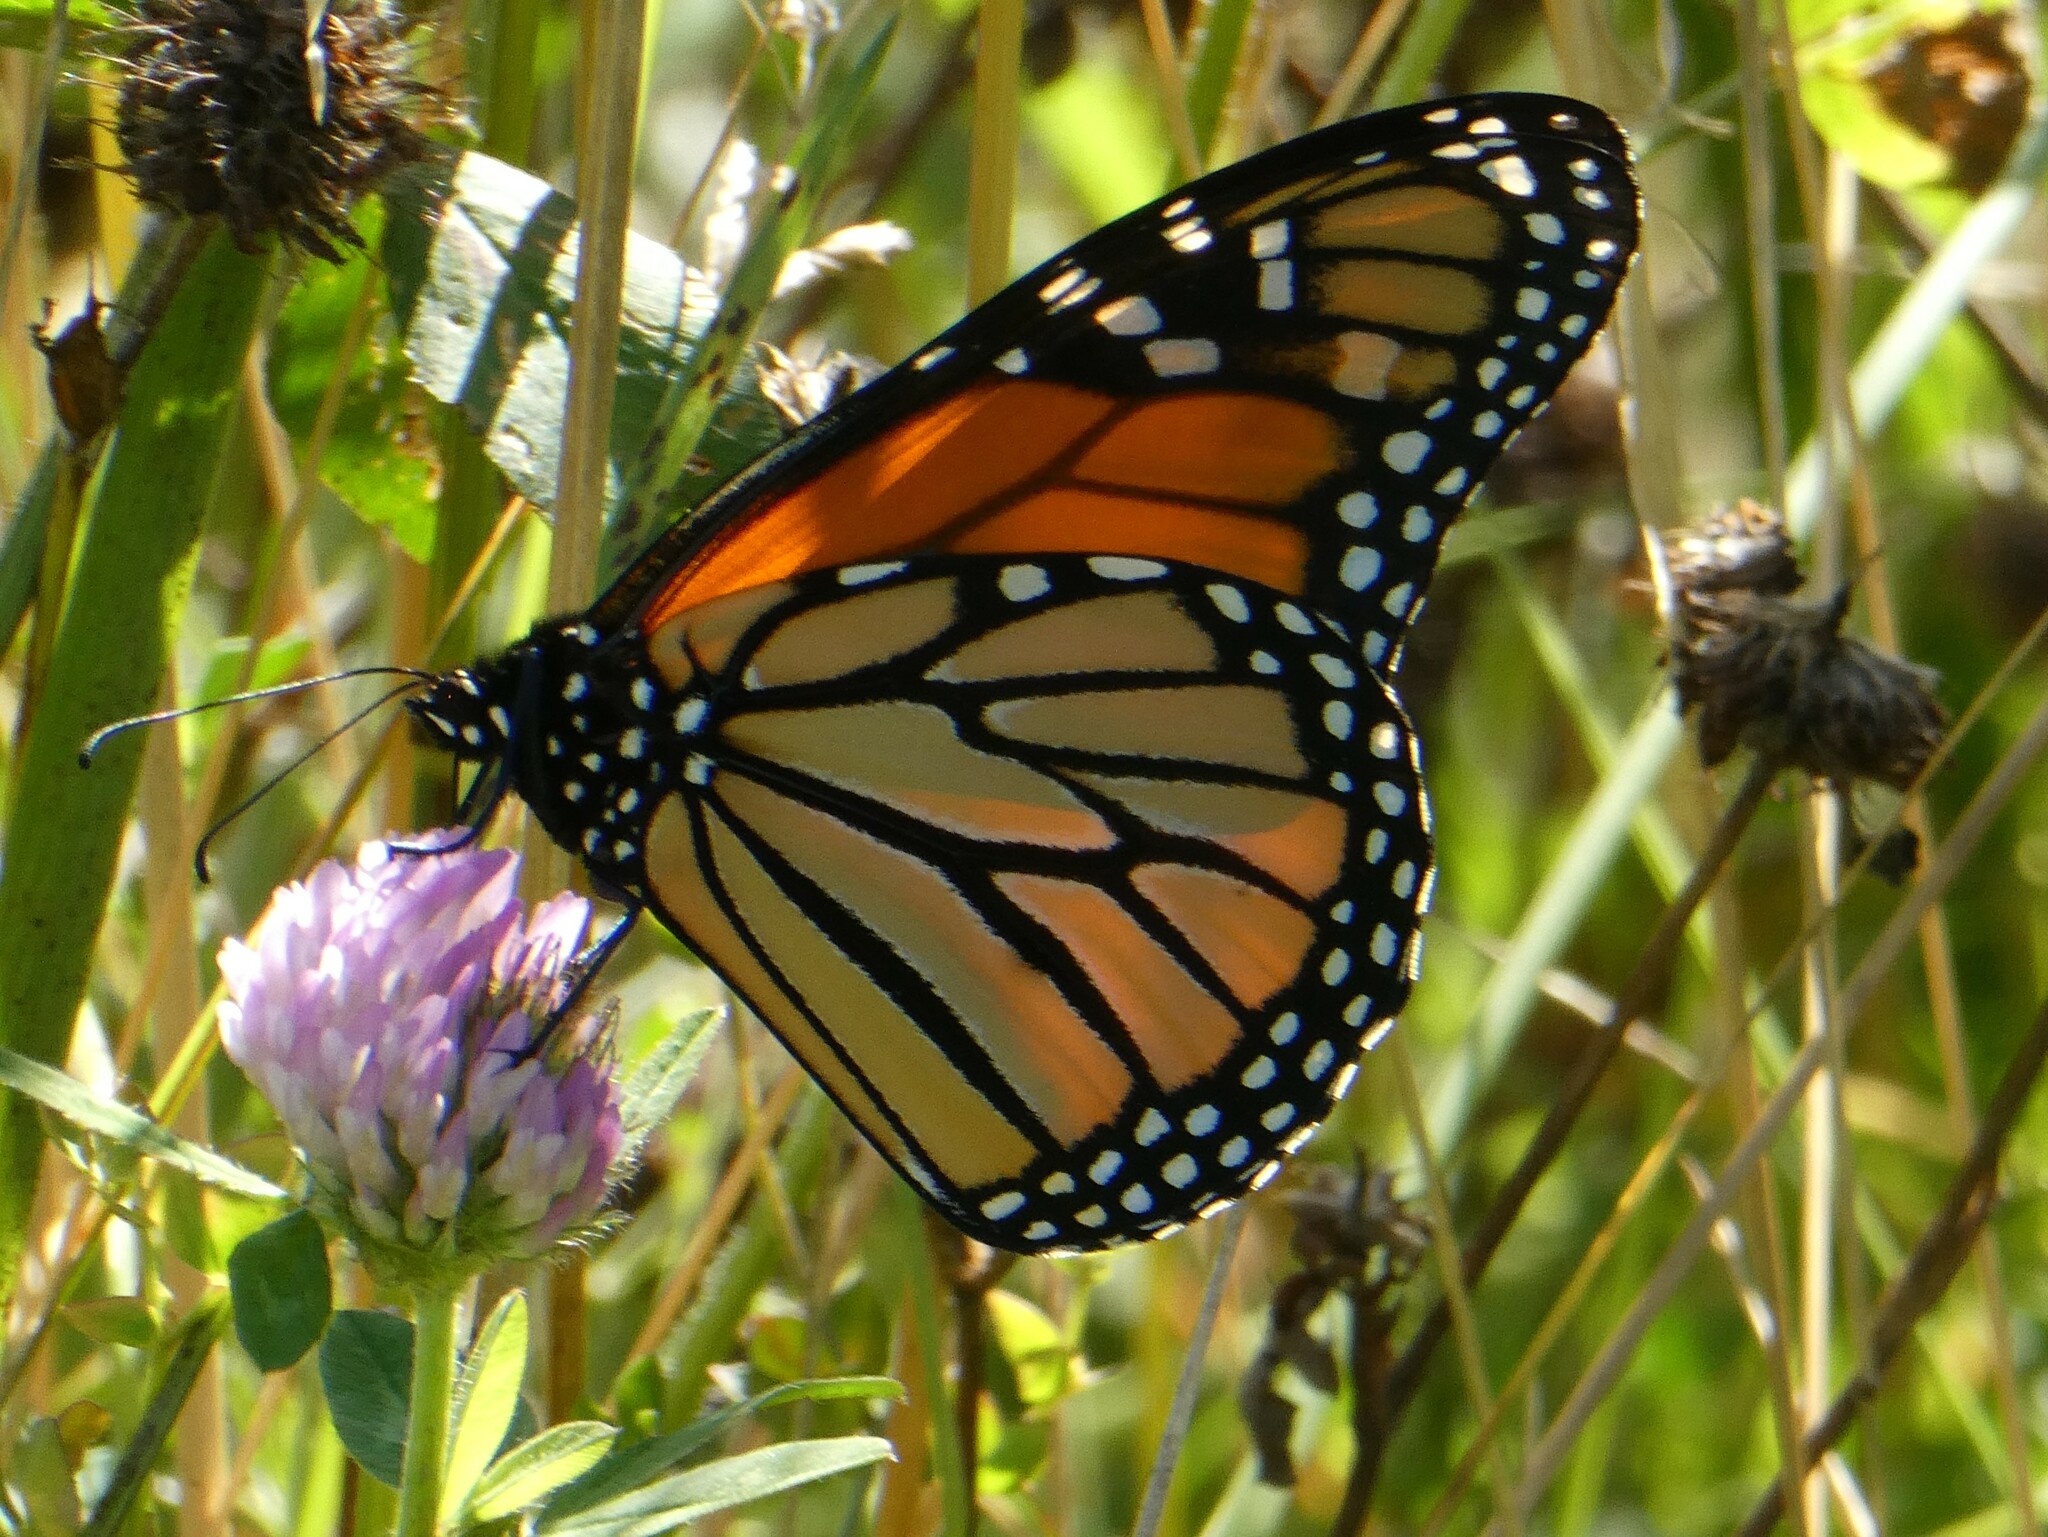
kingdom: Animalia
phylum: Arthropoda
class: Insecta
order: Lepidoptera
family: Nymphalidae
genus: Danaus
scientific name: Danaus plexippus
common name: Monarch
